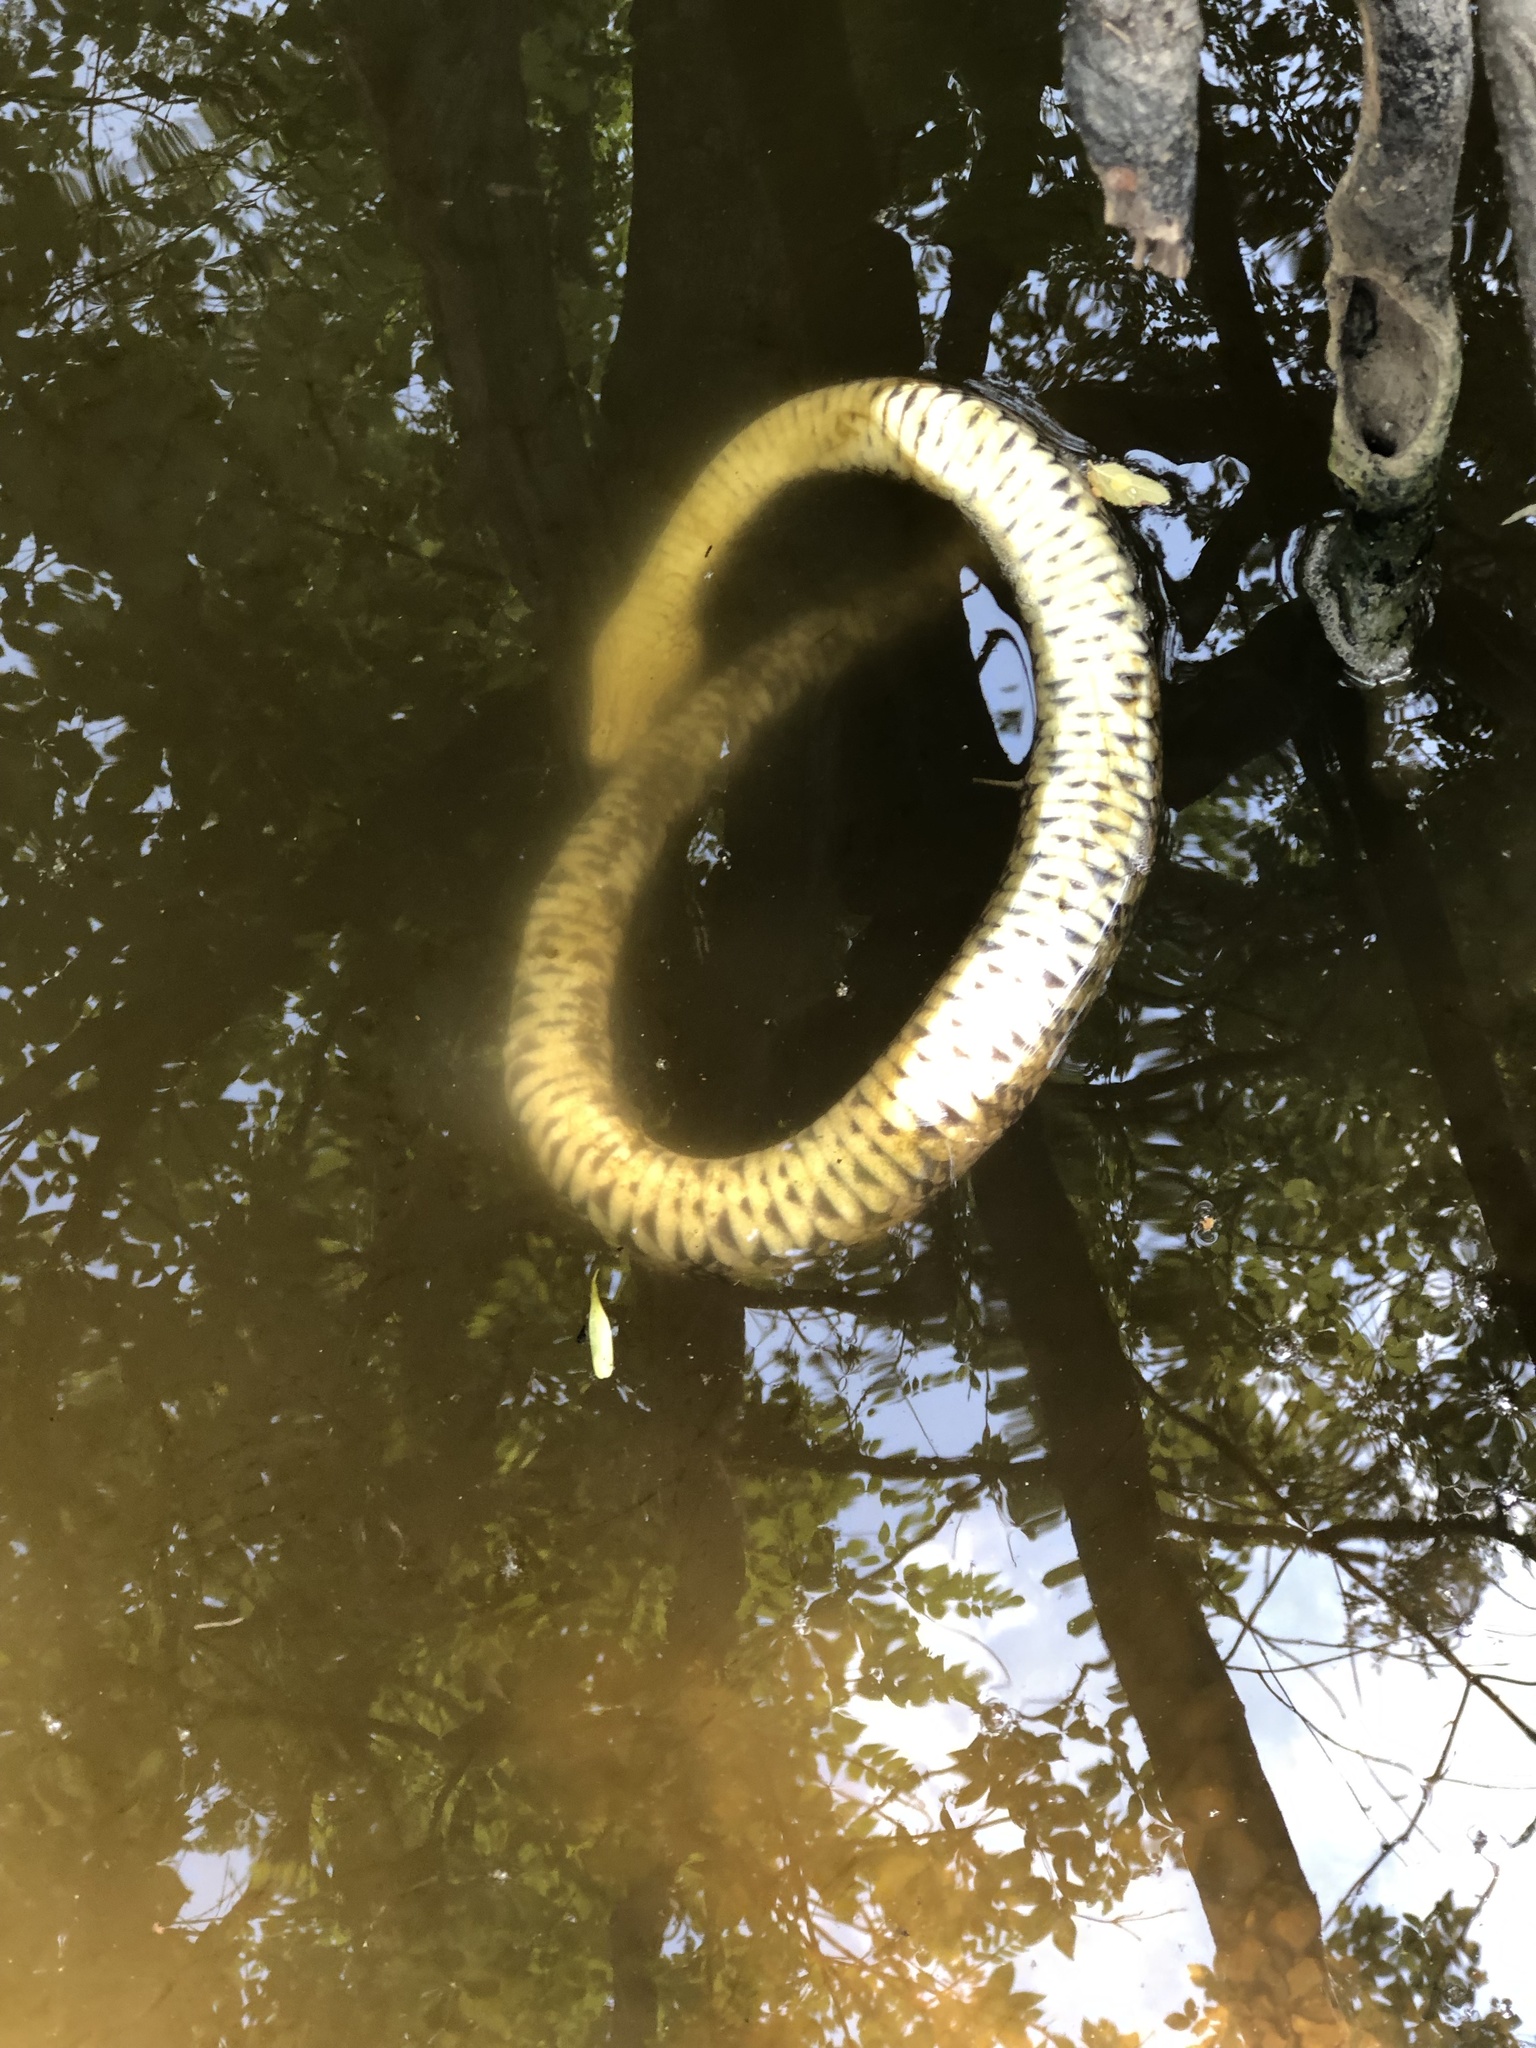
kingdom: Animalia
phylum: Chordata
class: Squamata
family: Colubridae
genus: Nerodia
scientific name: Nerodia rhombifer
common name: Diamondback water snake
